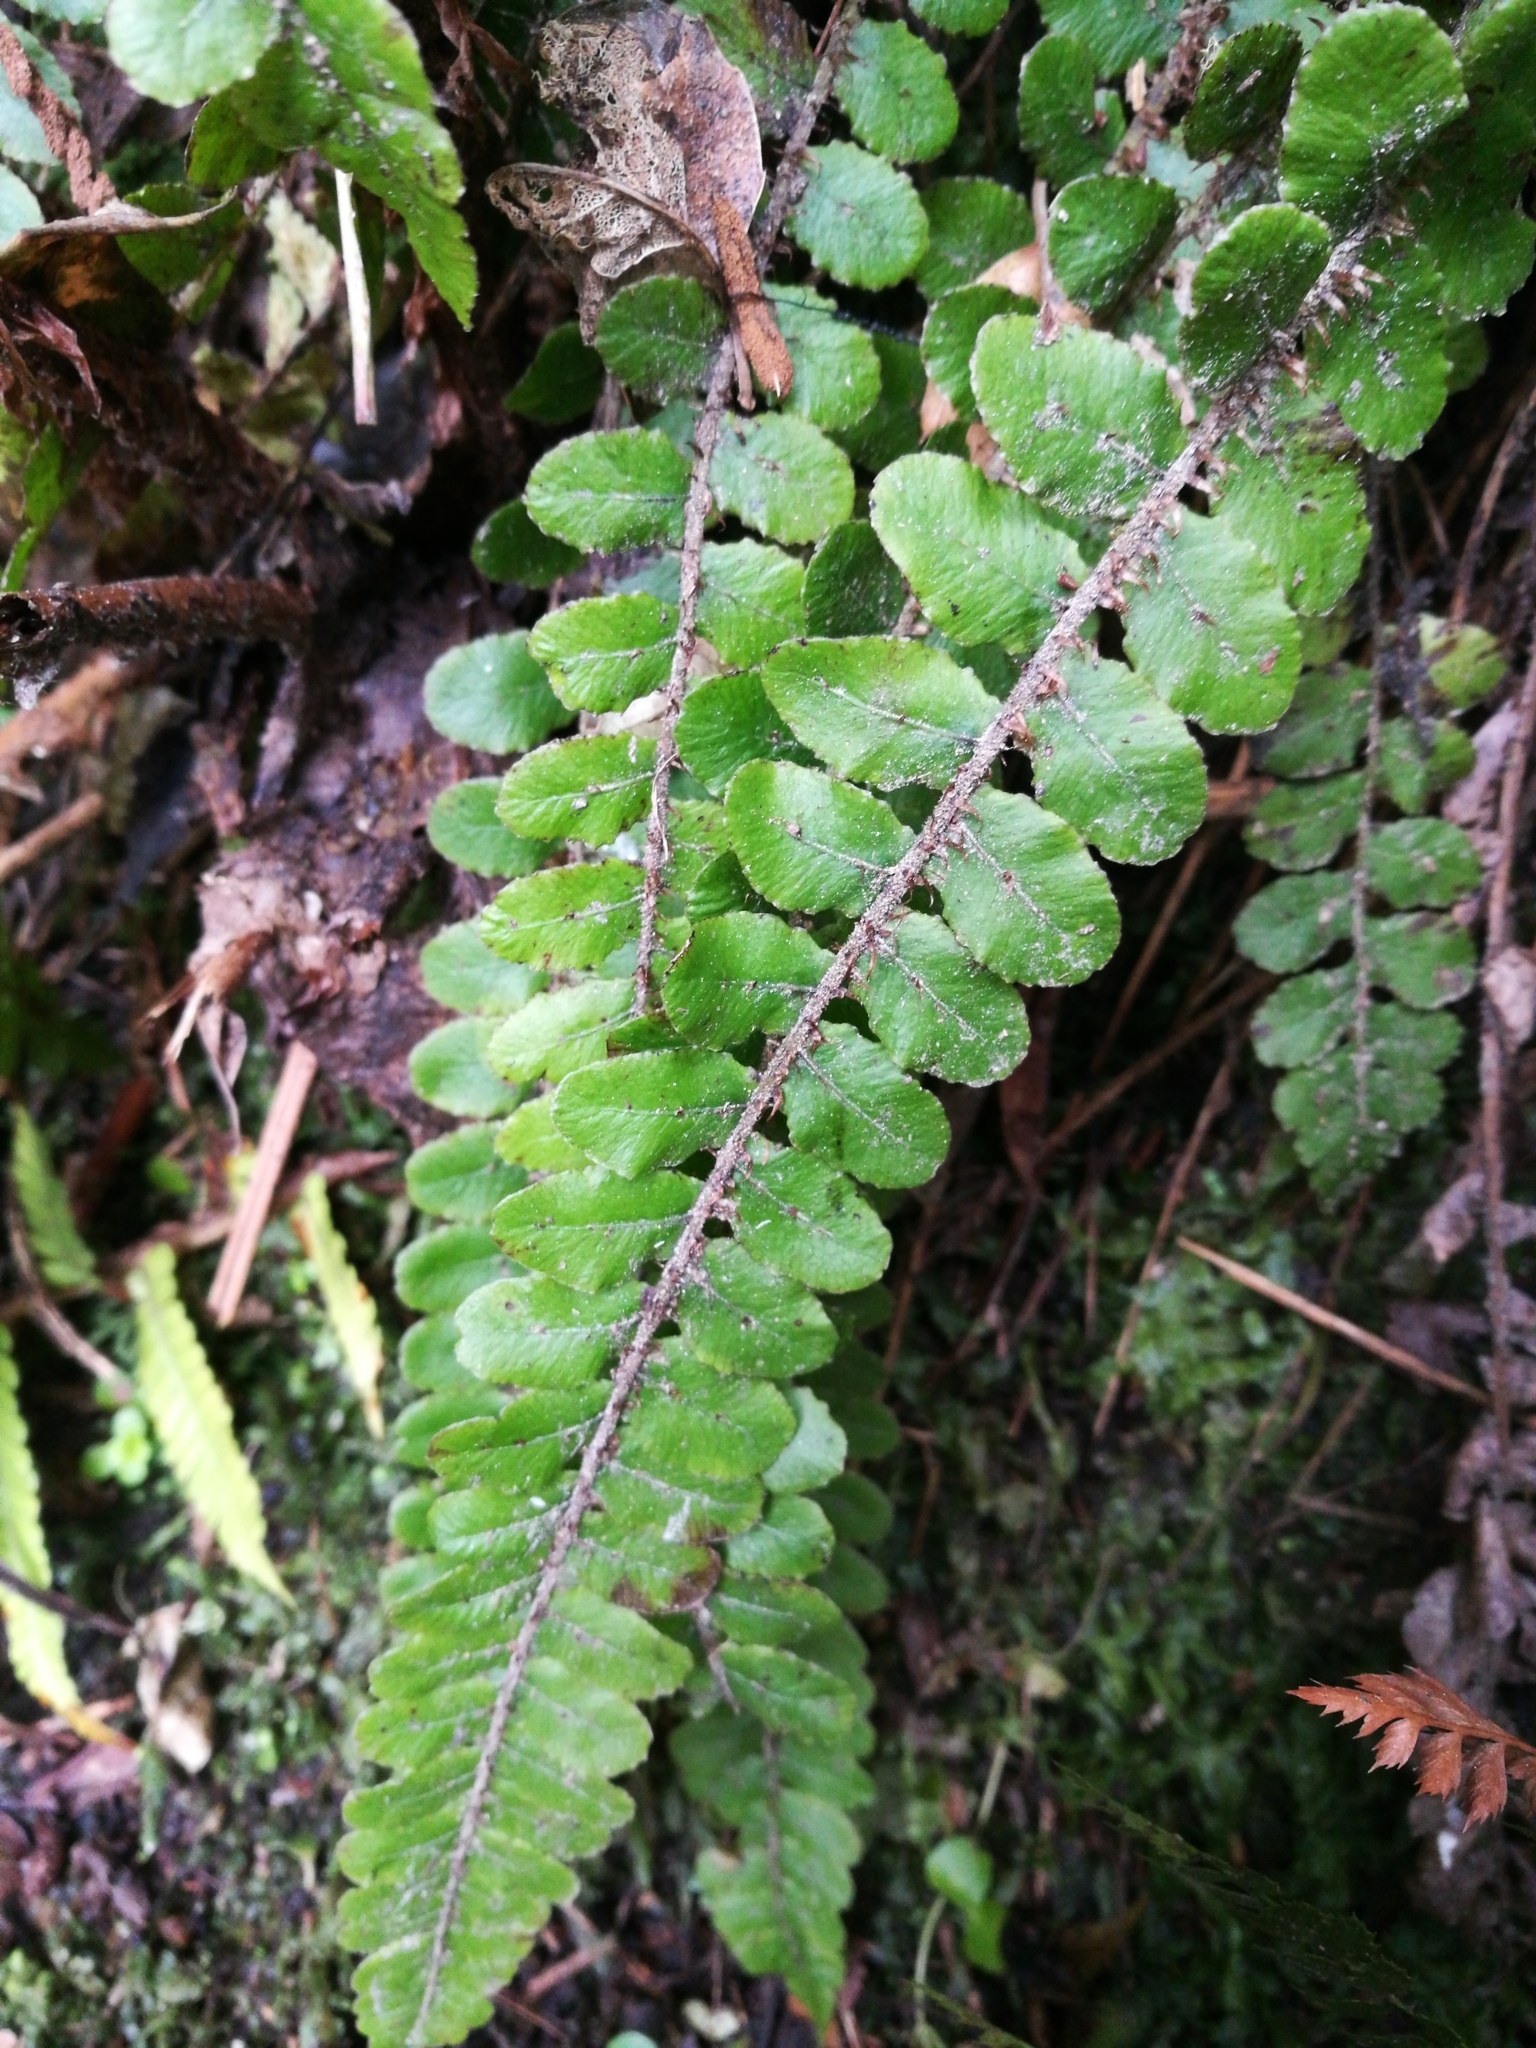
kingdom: Plantae
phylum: Tracheophyta
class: Polypodiopsida
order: Polypodiales
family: Blechnaceae
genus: Cranfillia
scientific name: Cranfillia fluviatilis
